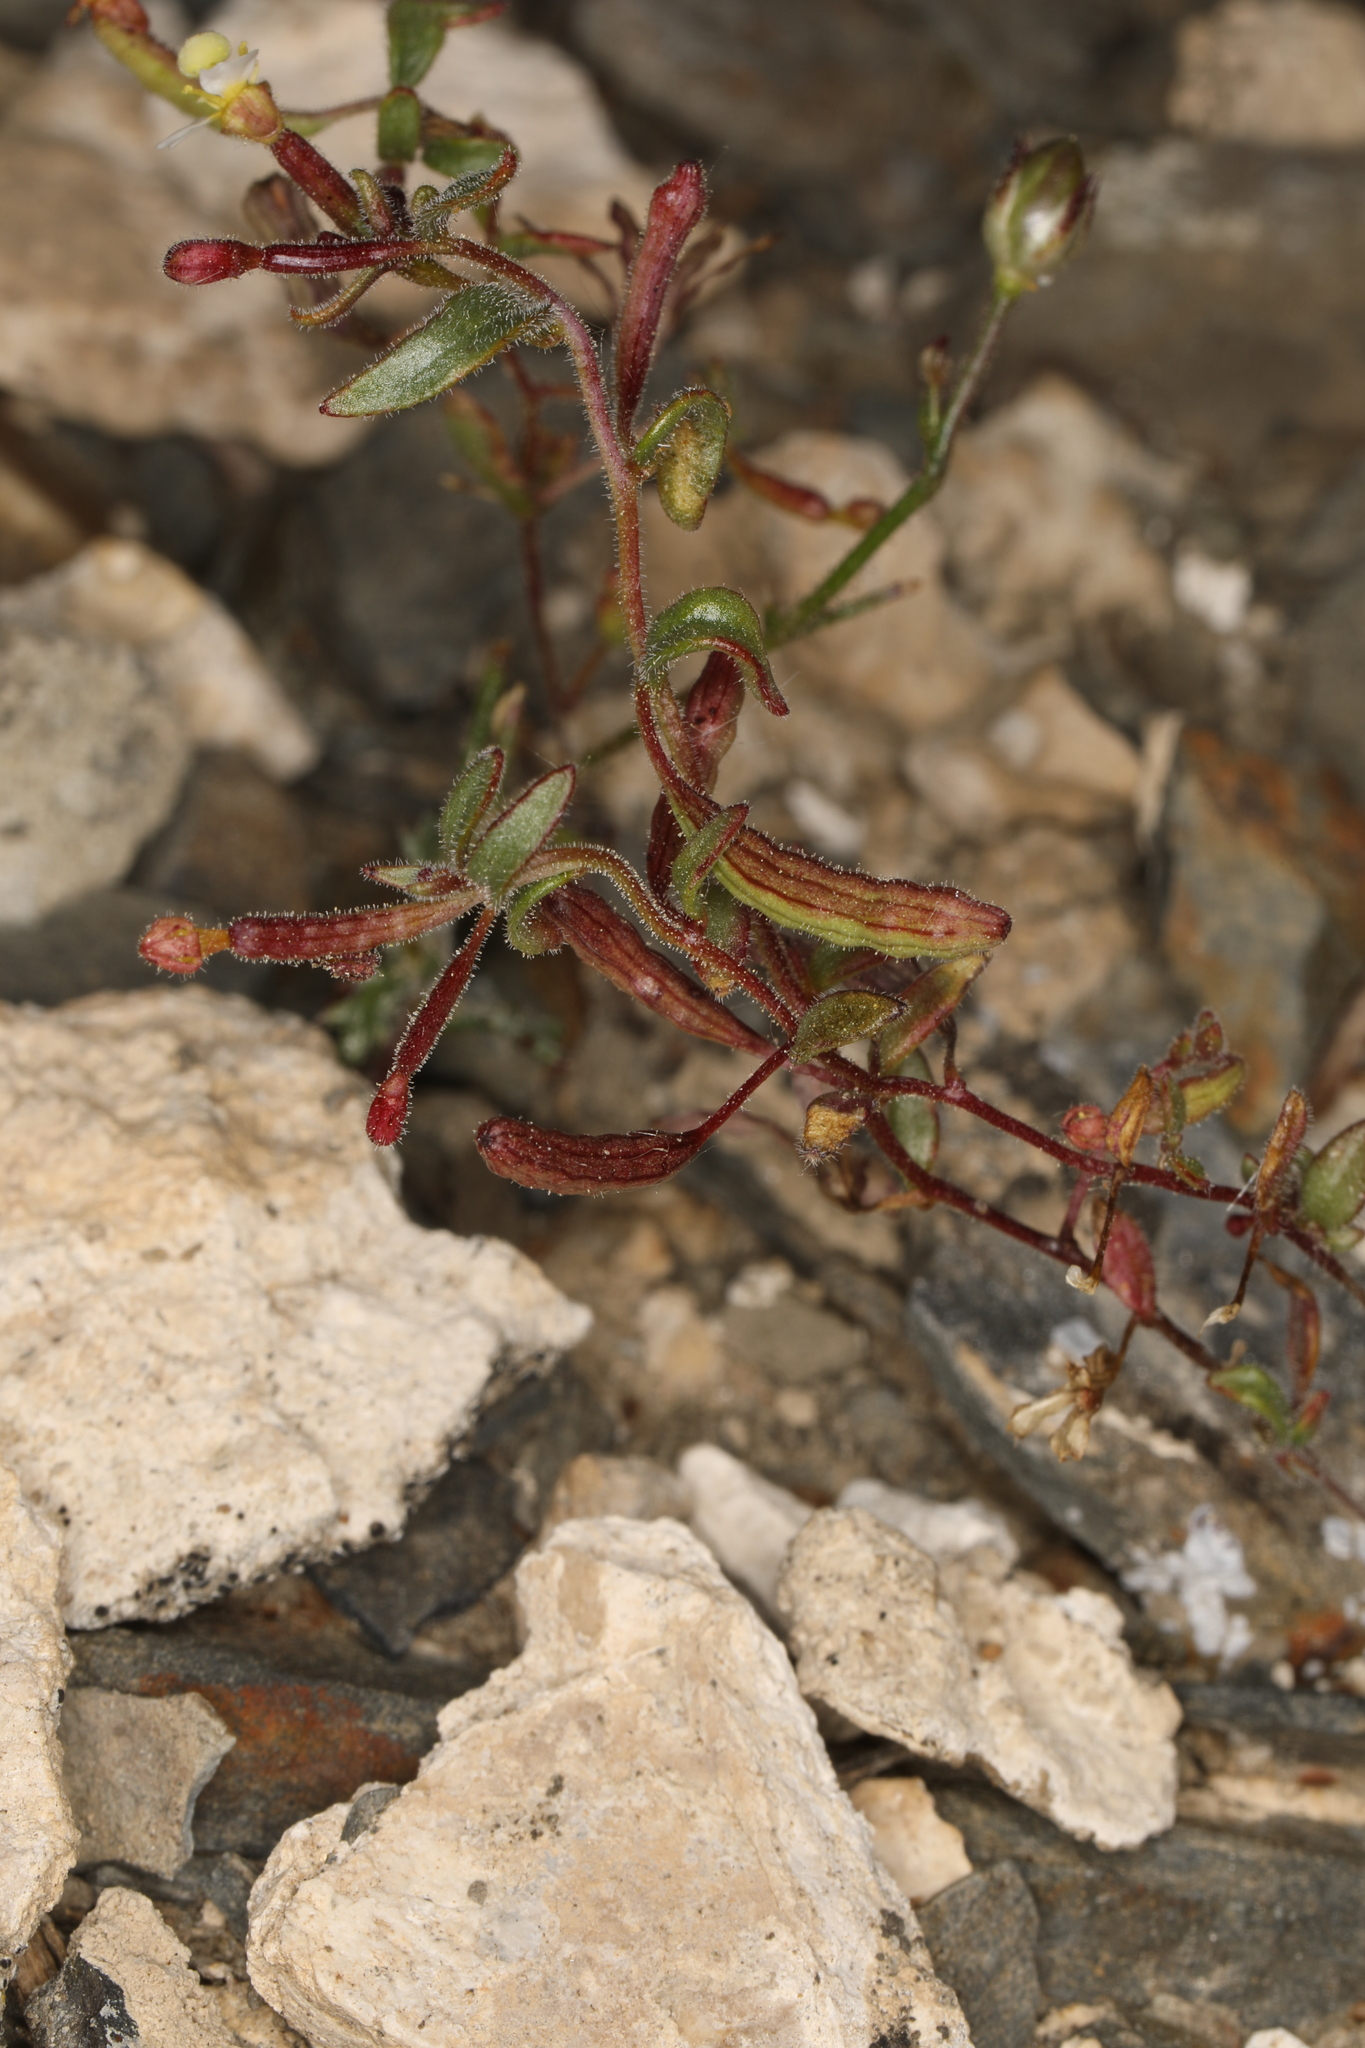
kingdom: Plantae
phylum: Tracheophyta
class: Magnoliopsida
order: Myrtales
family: Onagraceae
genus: Chylismiella
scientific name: Chylismiella pterosperma
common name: Wingfruit suncup
